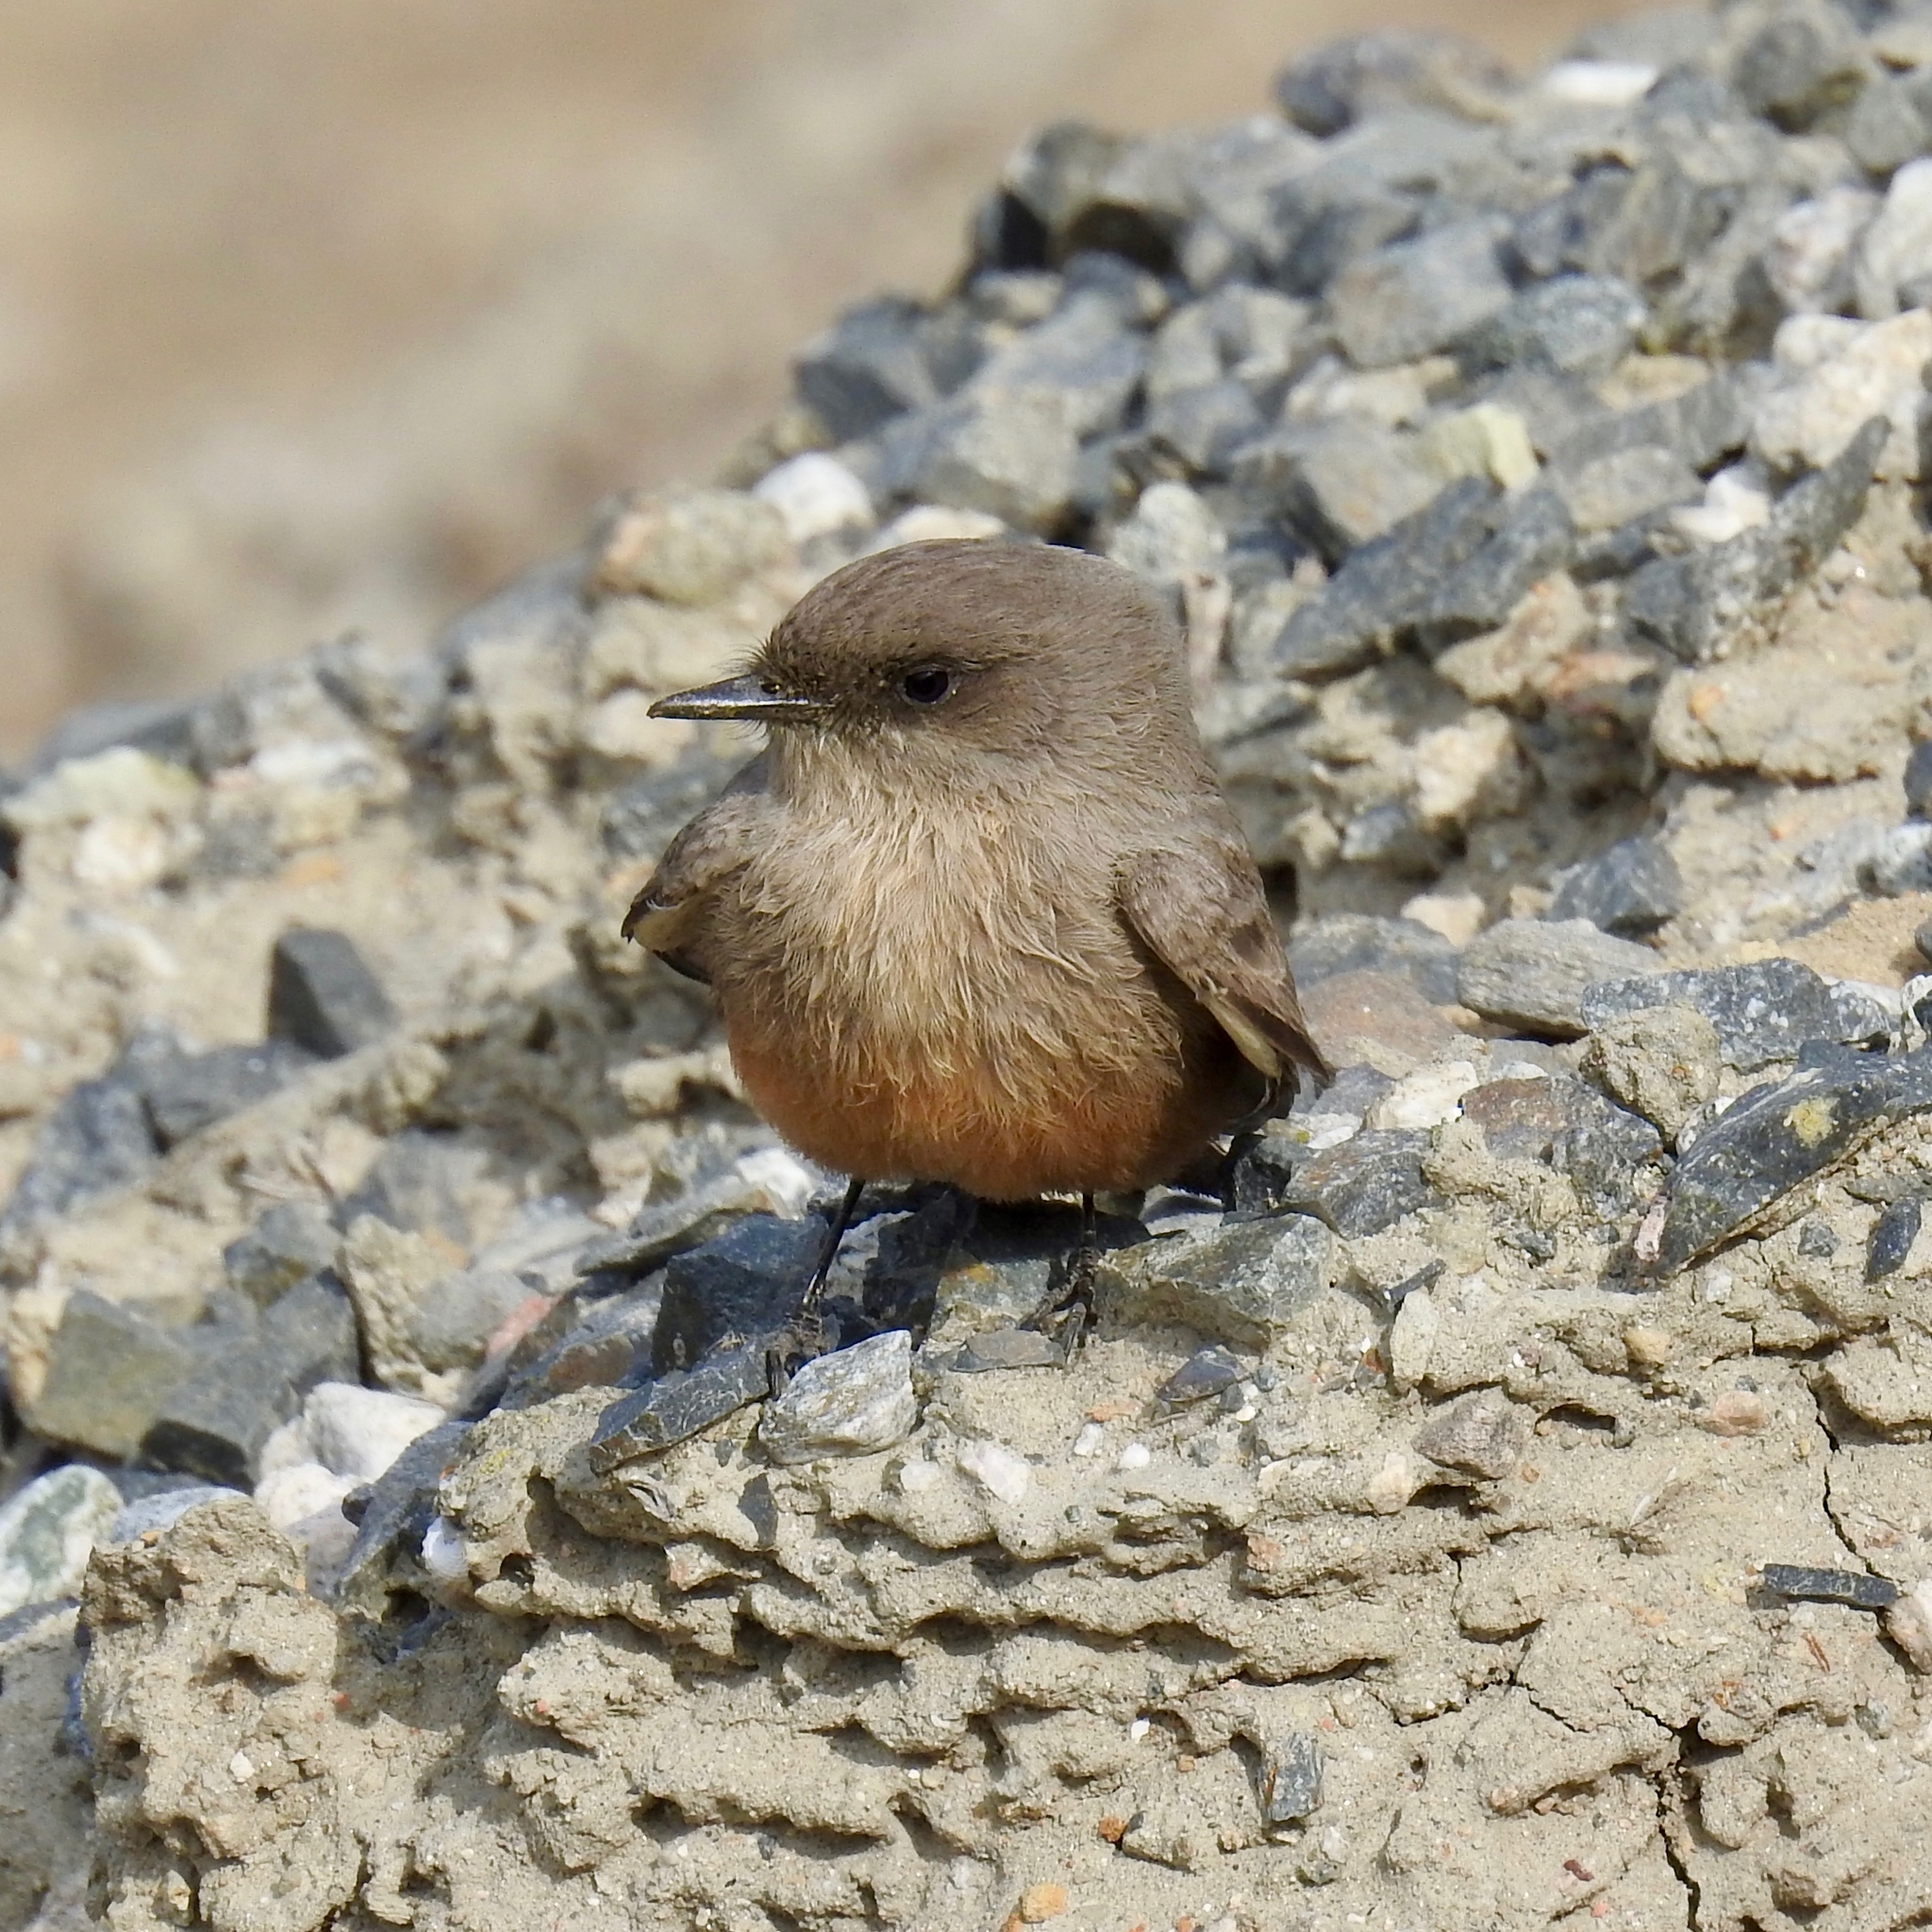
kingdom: Animalia
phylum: Chordata
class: Aves
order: Passeriformes
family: Tyrannidae
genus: Sayornis
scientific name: Sayornis saya
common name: Say's phoebe
